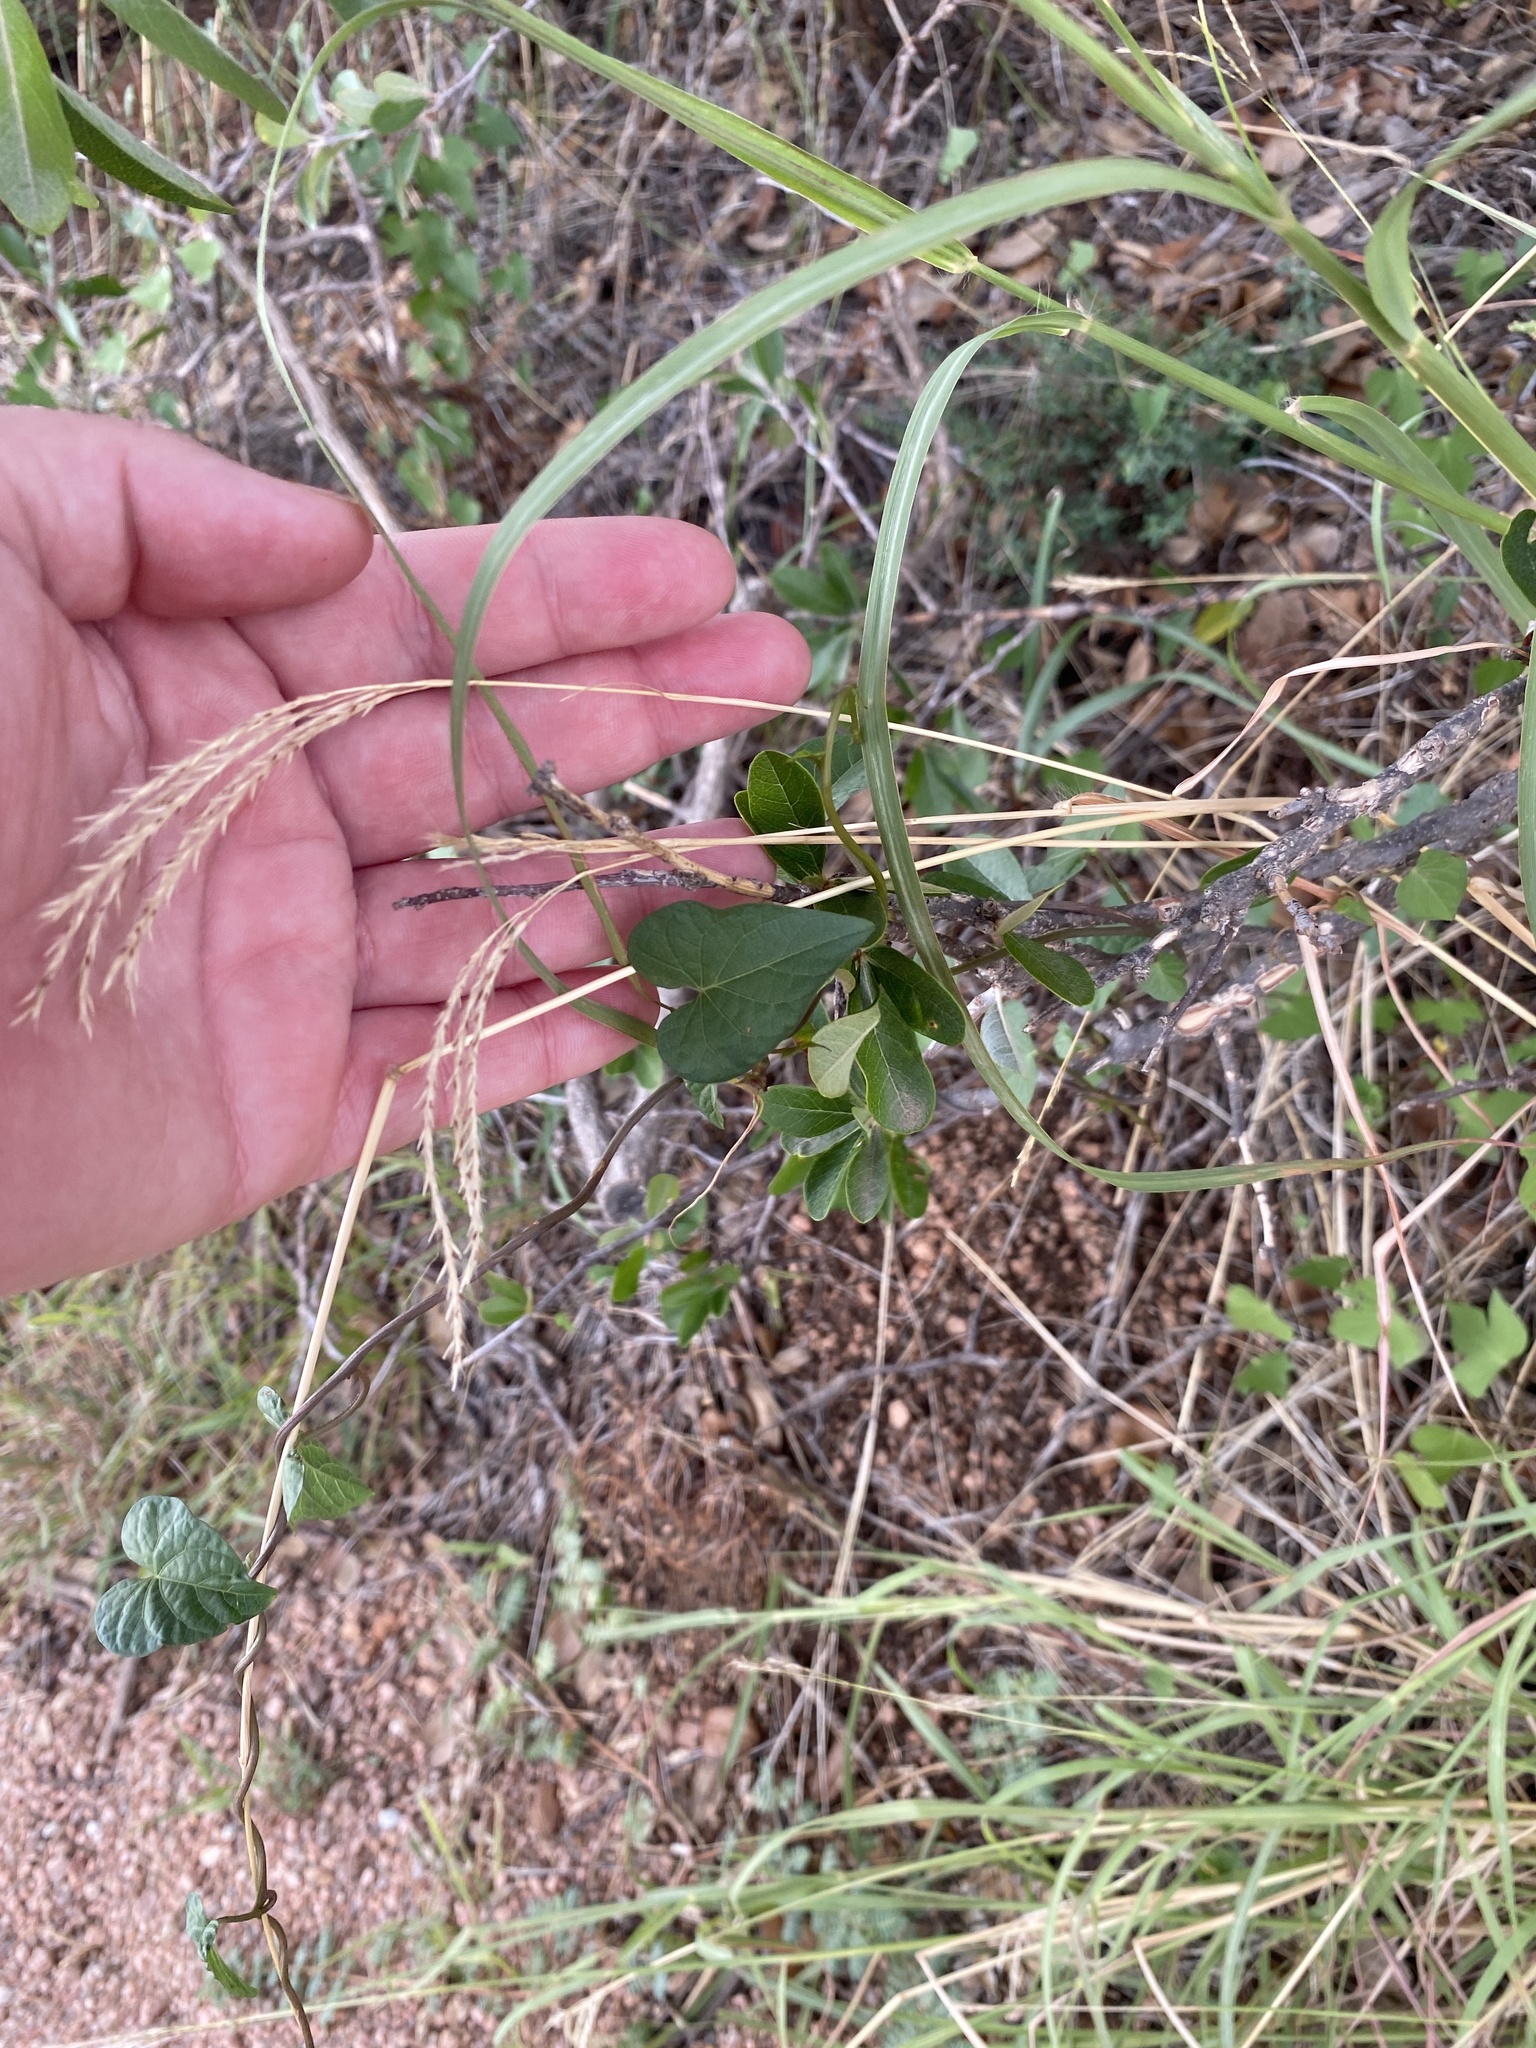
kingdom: Plantae
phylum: Tracheophyta
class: Liliopsida
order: Poales
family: Poaceae
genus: Bothriochloa
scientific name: Bothriochloa ischaemum
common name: Yellow bluestem
